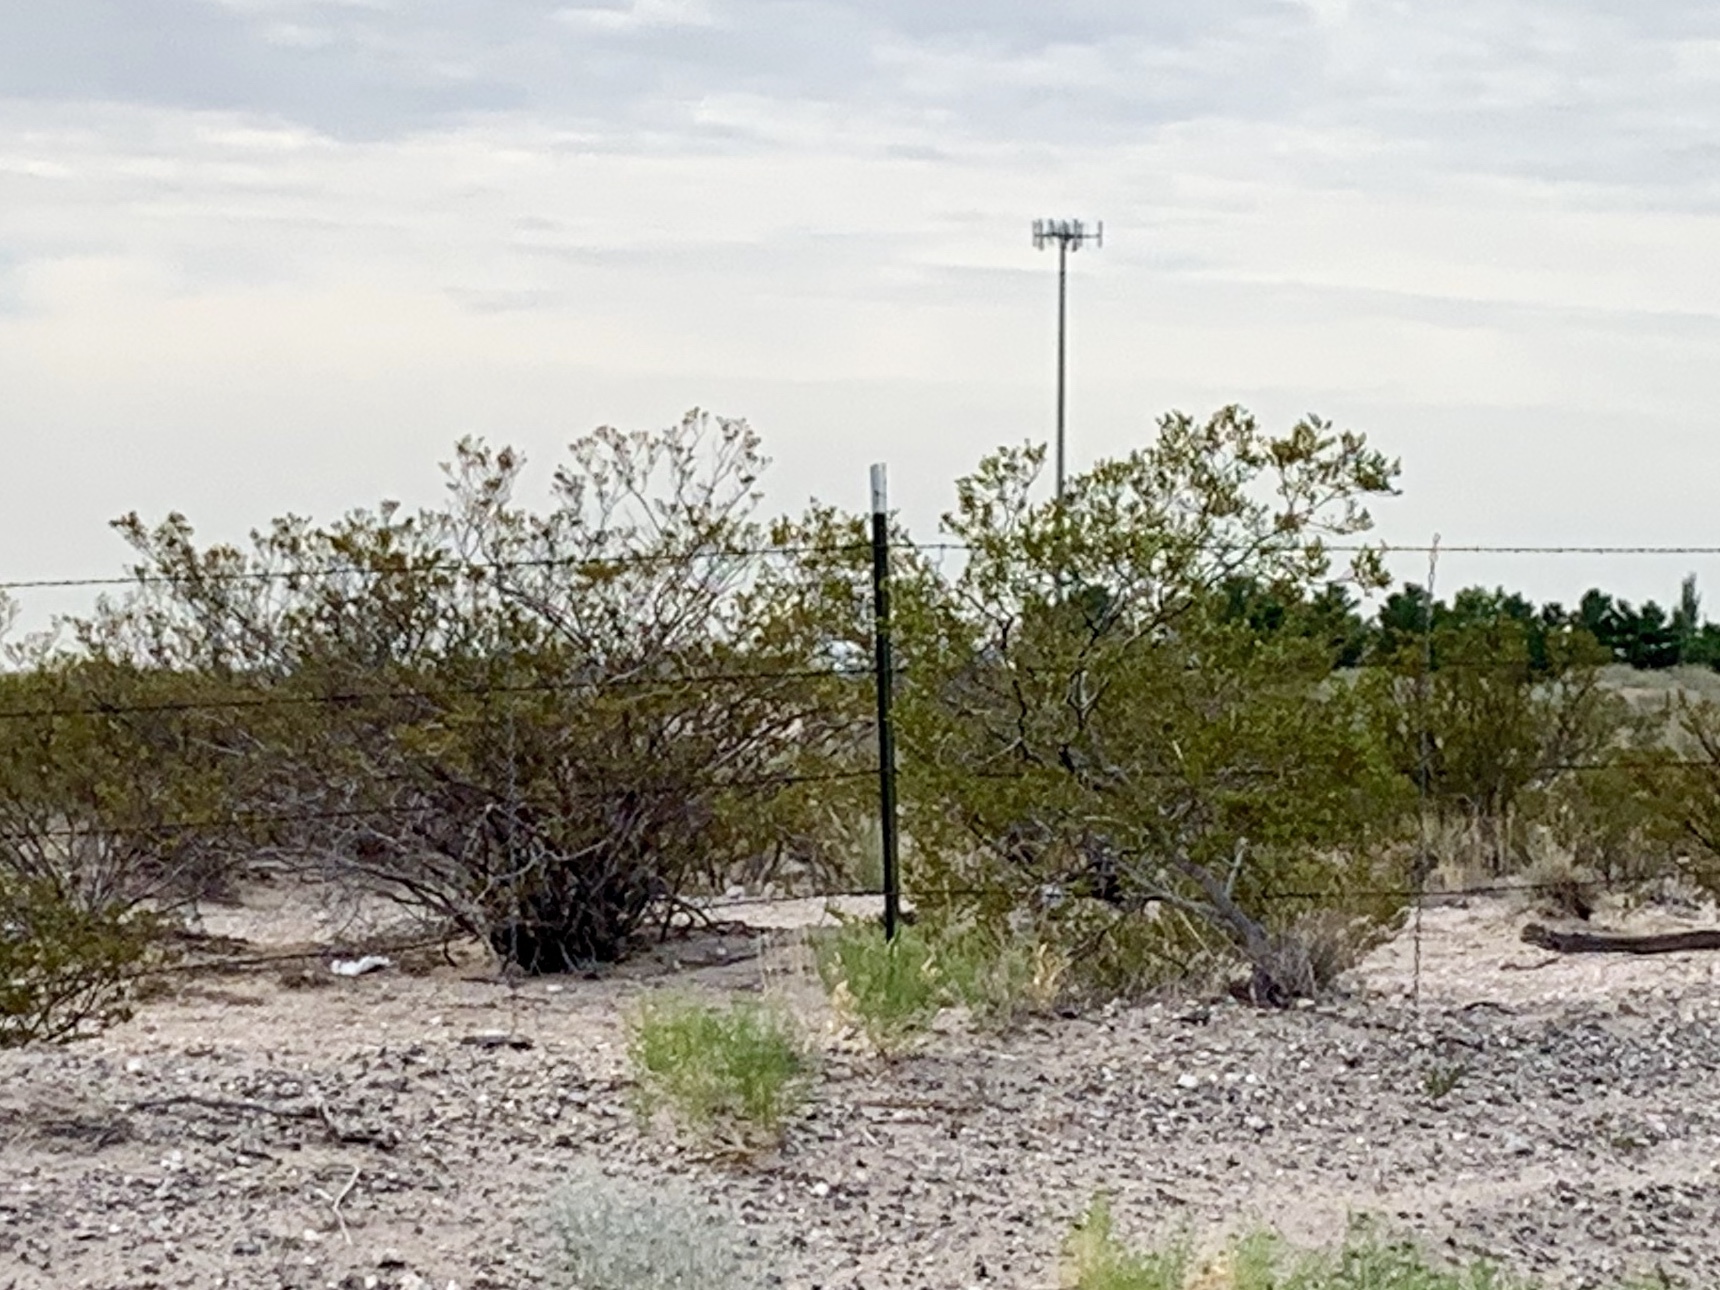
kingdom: Plantae
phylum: Tracheophyta
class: Magnoliopsida
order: Zygophyllales
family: Zygophyllaceae
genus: Larrea
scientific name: Larrea tridentata
